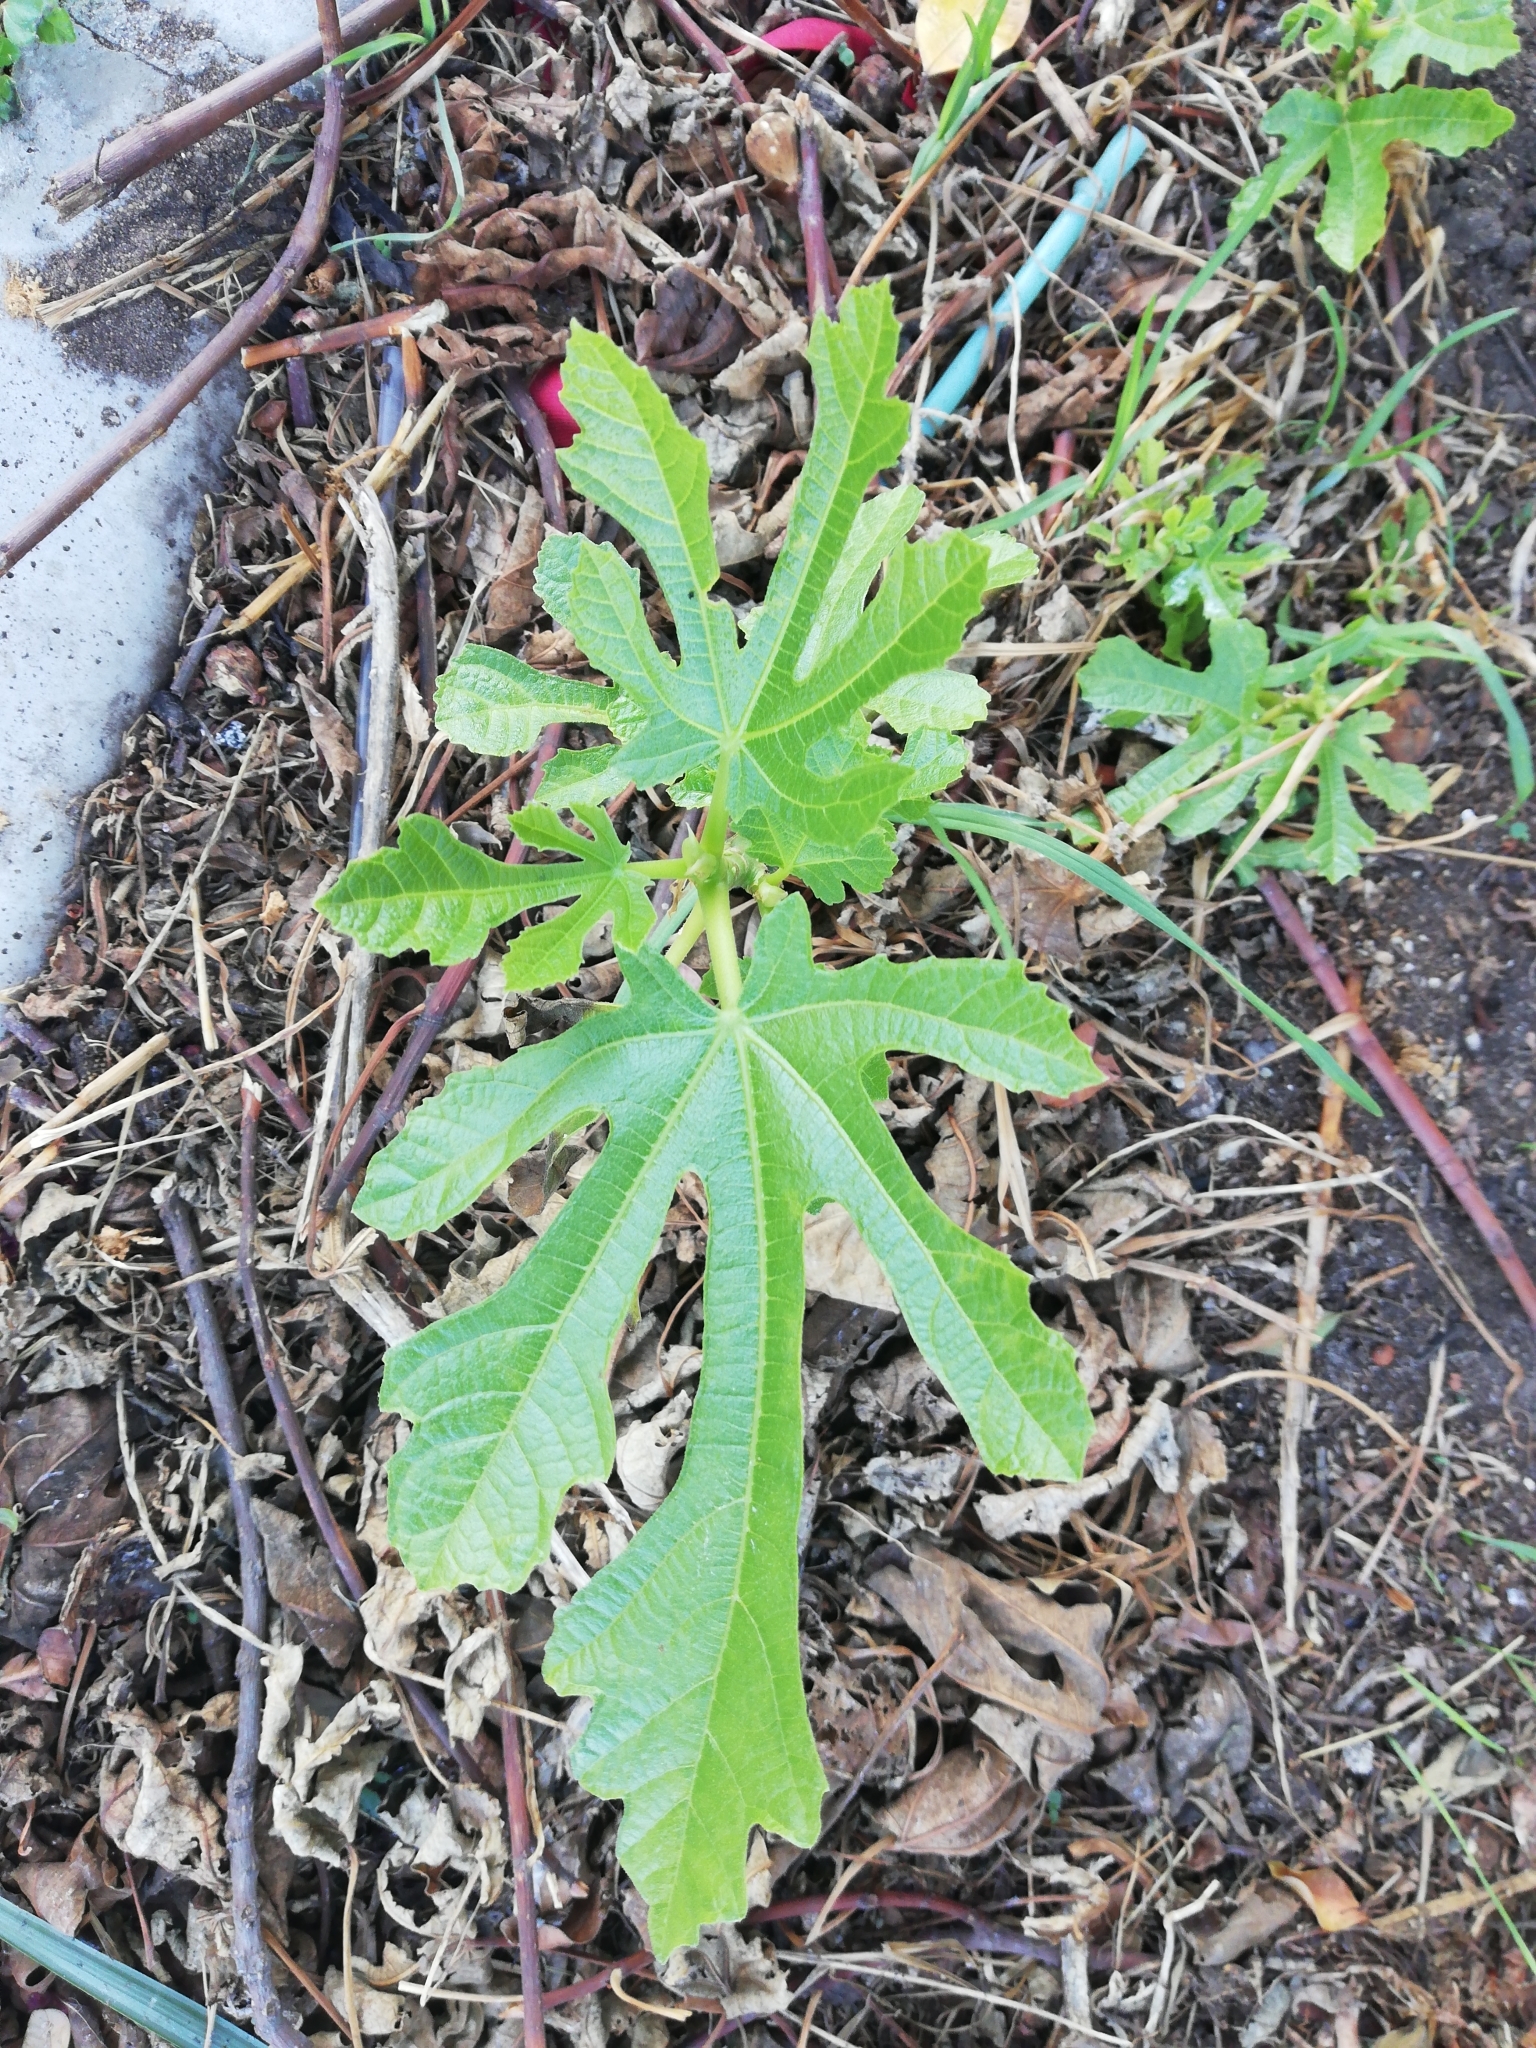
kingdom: Plantae
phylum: Tracheophyta
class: Magnoliopsida
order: Rosales
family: Moraceae
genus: Ficus
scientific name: Ficus carica
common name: Fig
